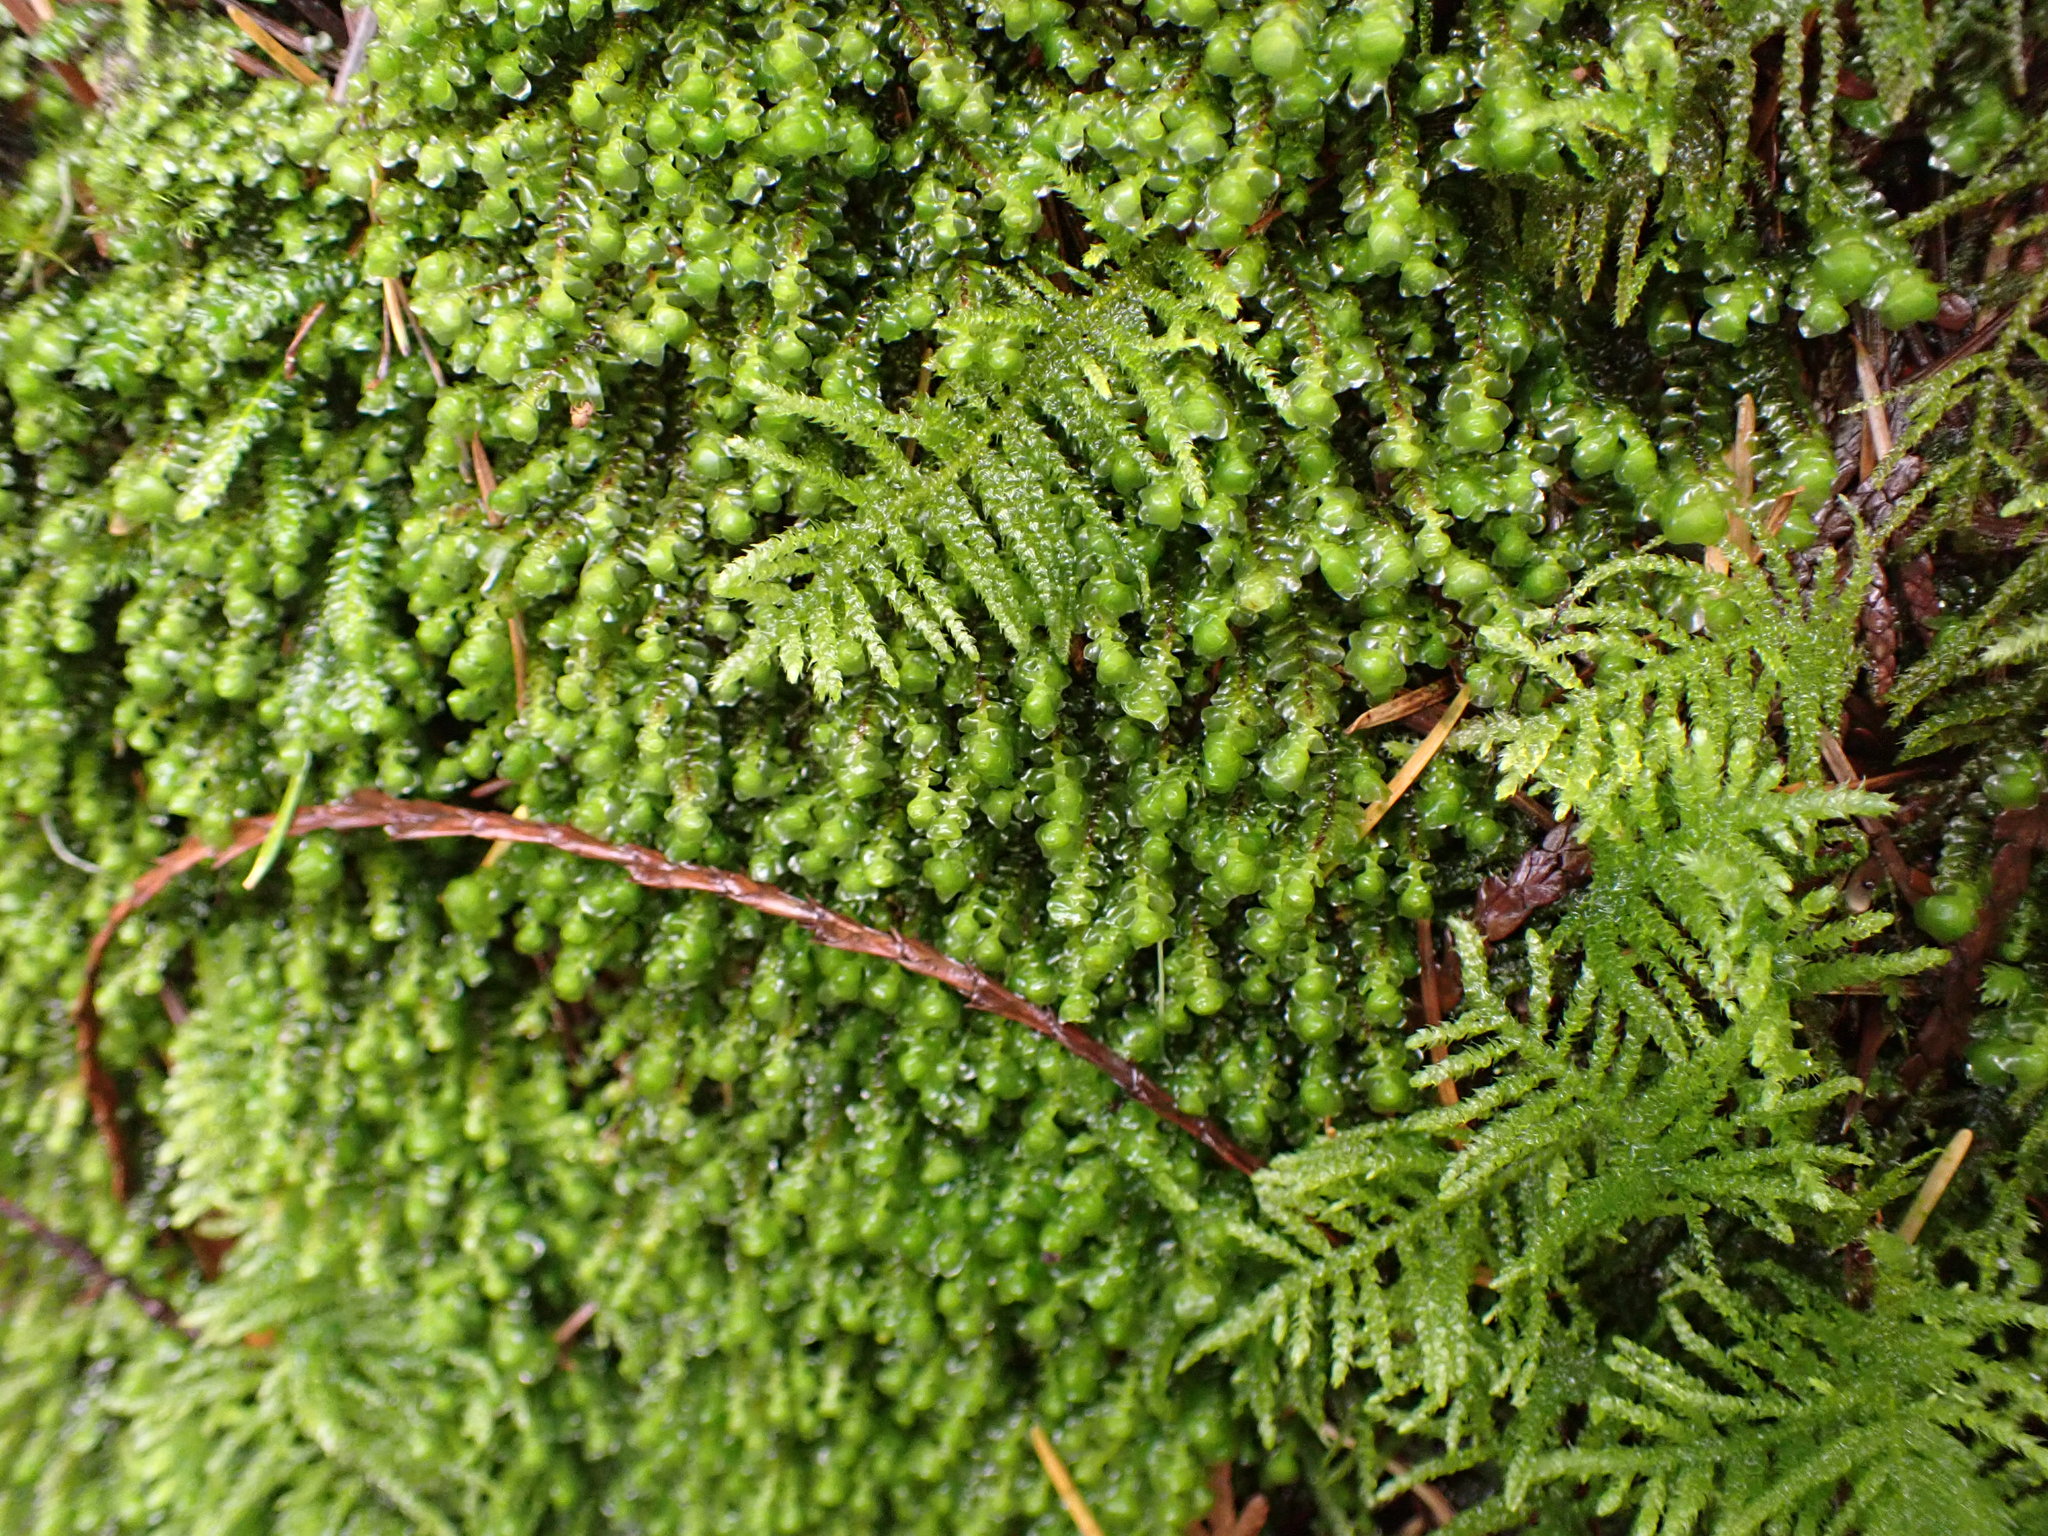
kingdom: Plantae
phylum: Bryophyta
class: Bryopsida
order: Hypnales
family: Plagiotheciaceae
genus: Plagiothecium
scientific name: Plagiothecium denticulatum
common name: Dented silk moss
